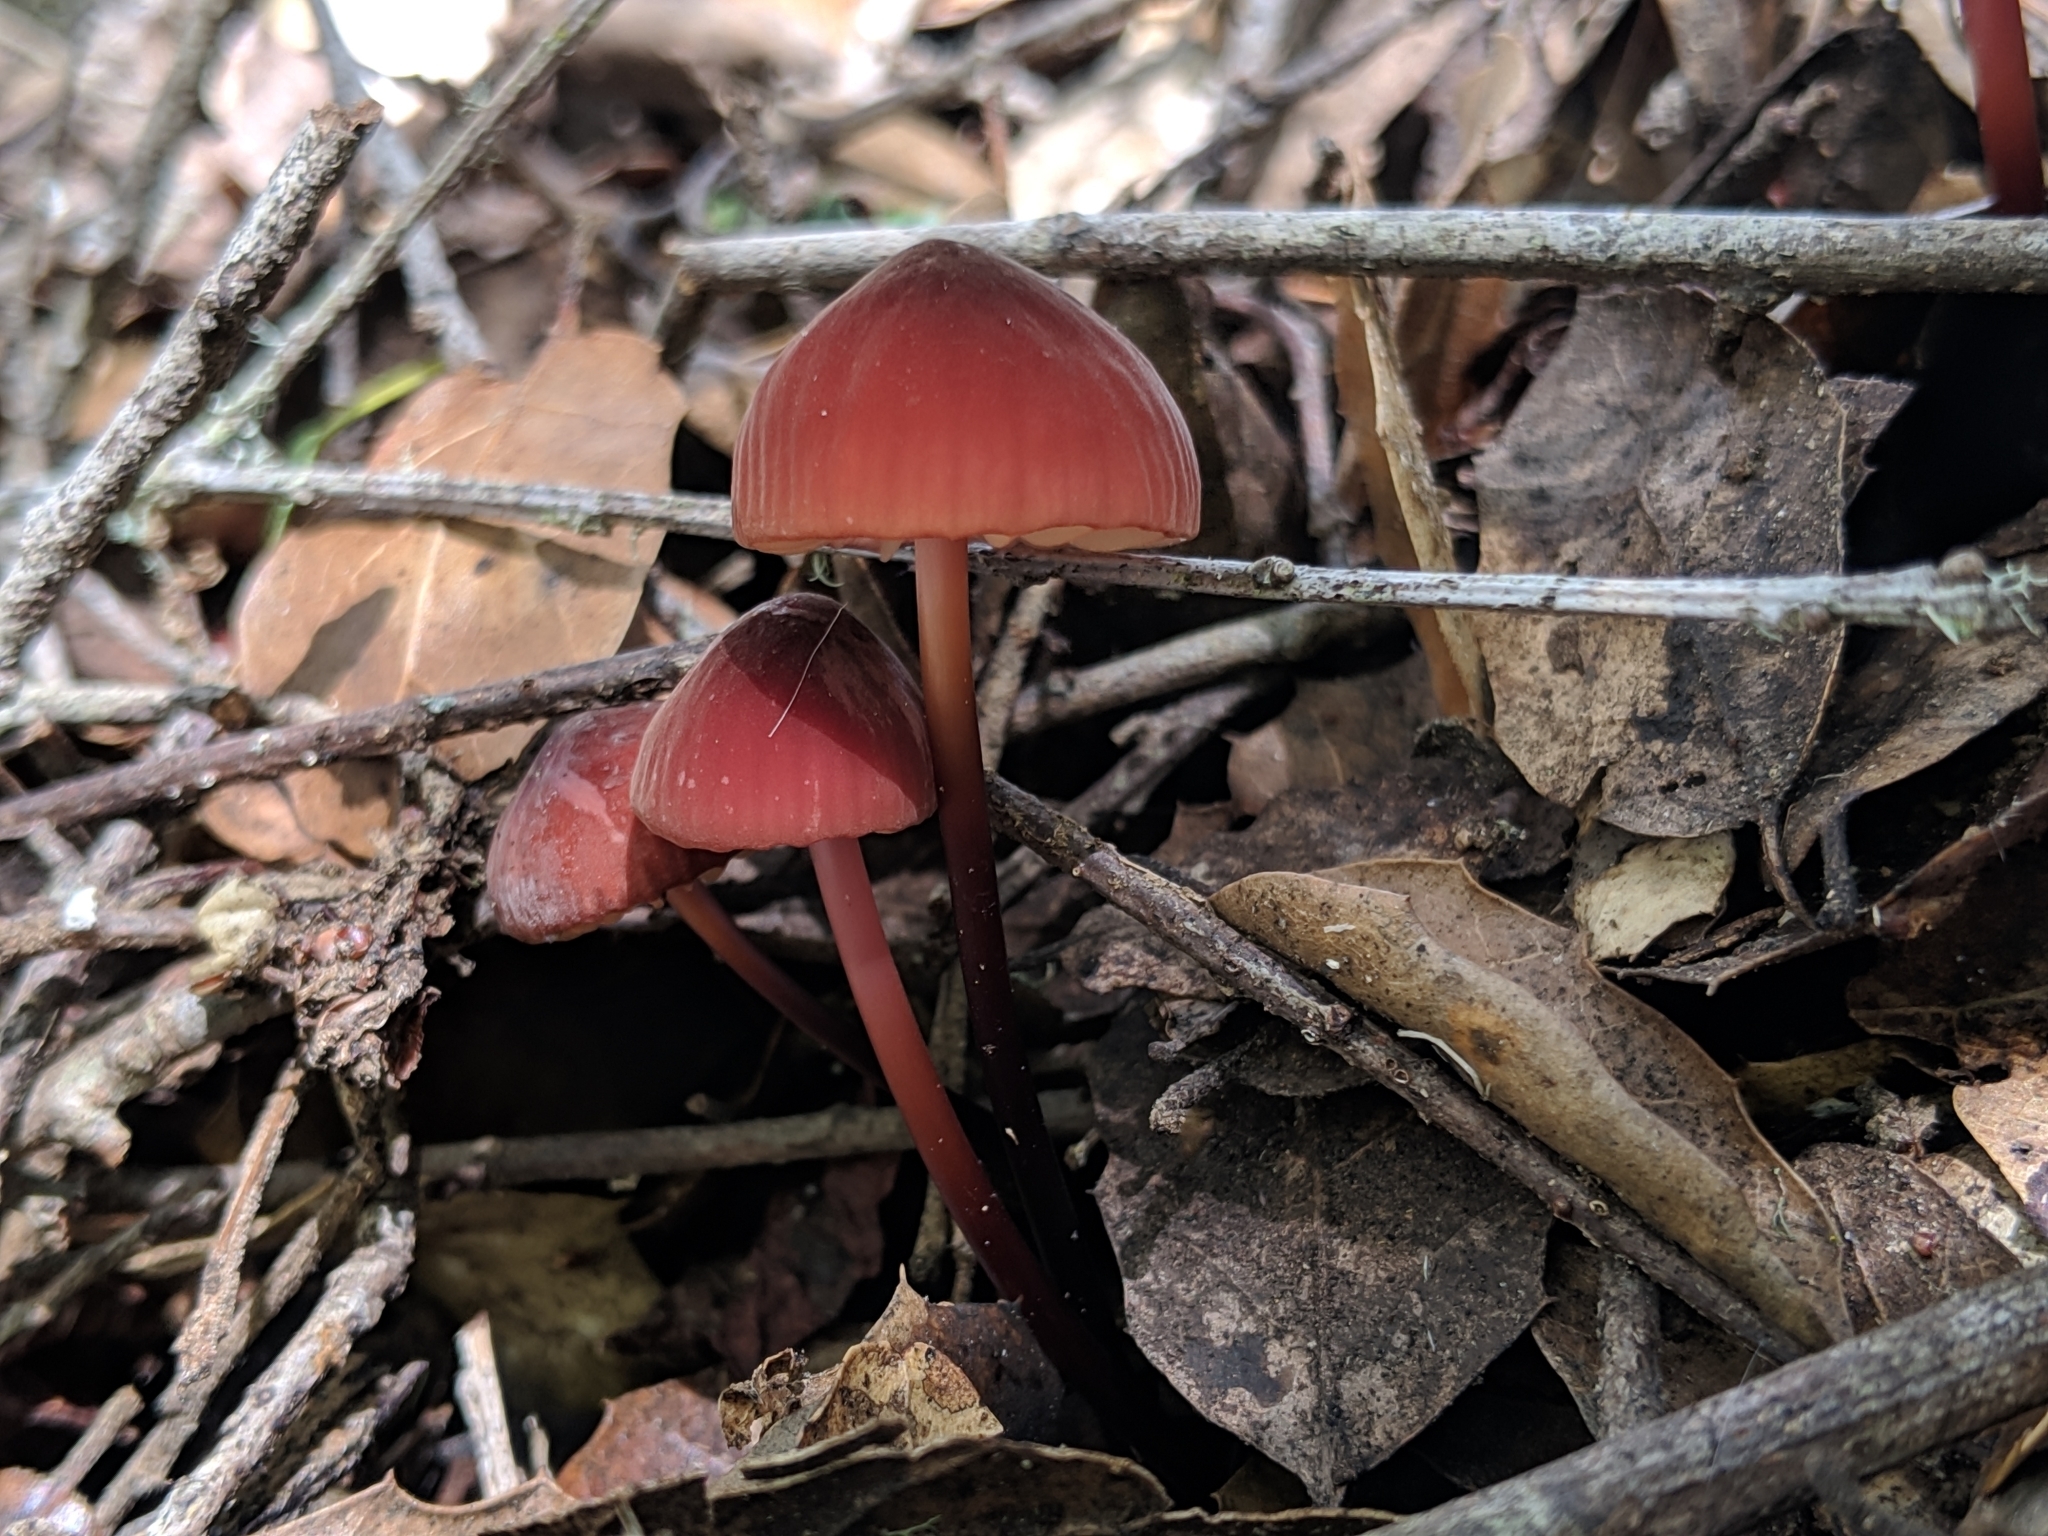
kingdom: Fungi
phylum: Basidiomycota
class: Agaricomycetes
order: Agaricales
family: Marasmiaceae
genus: Marasmius
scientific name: Marasmius plicatulus
